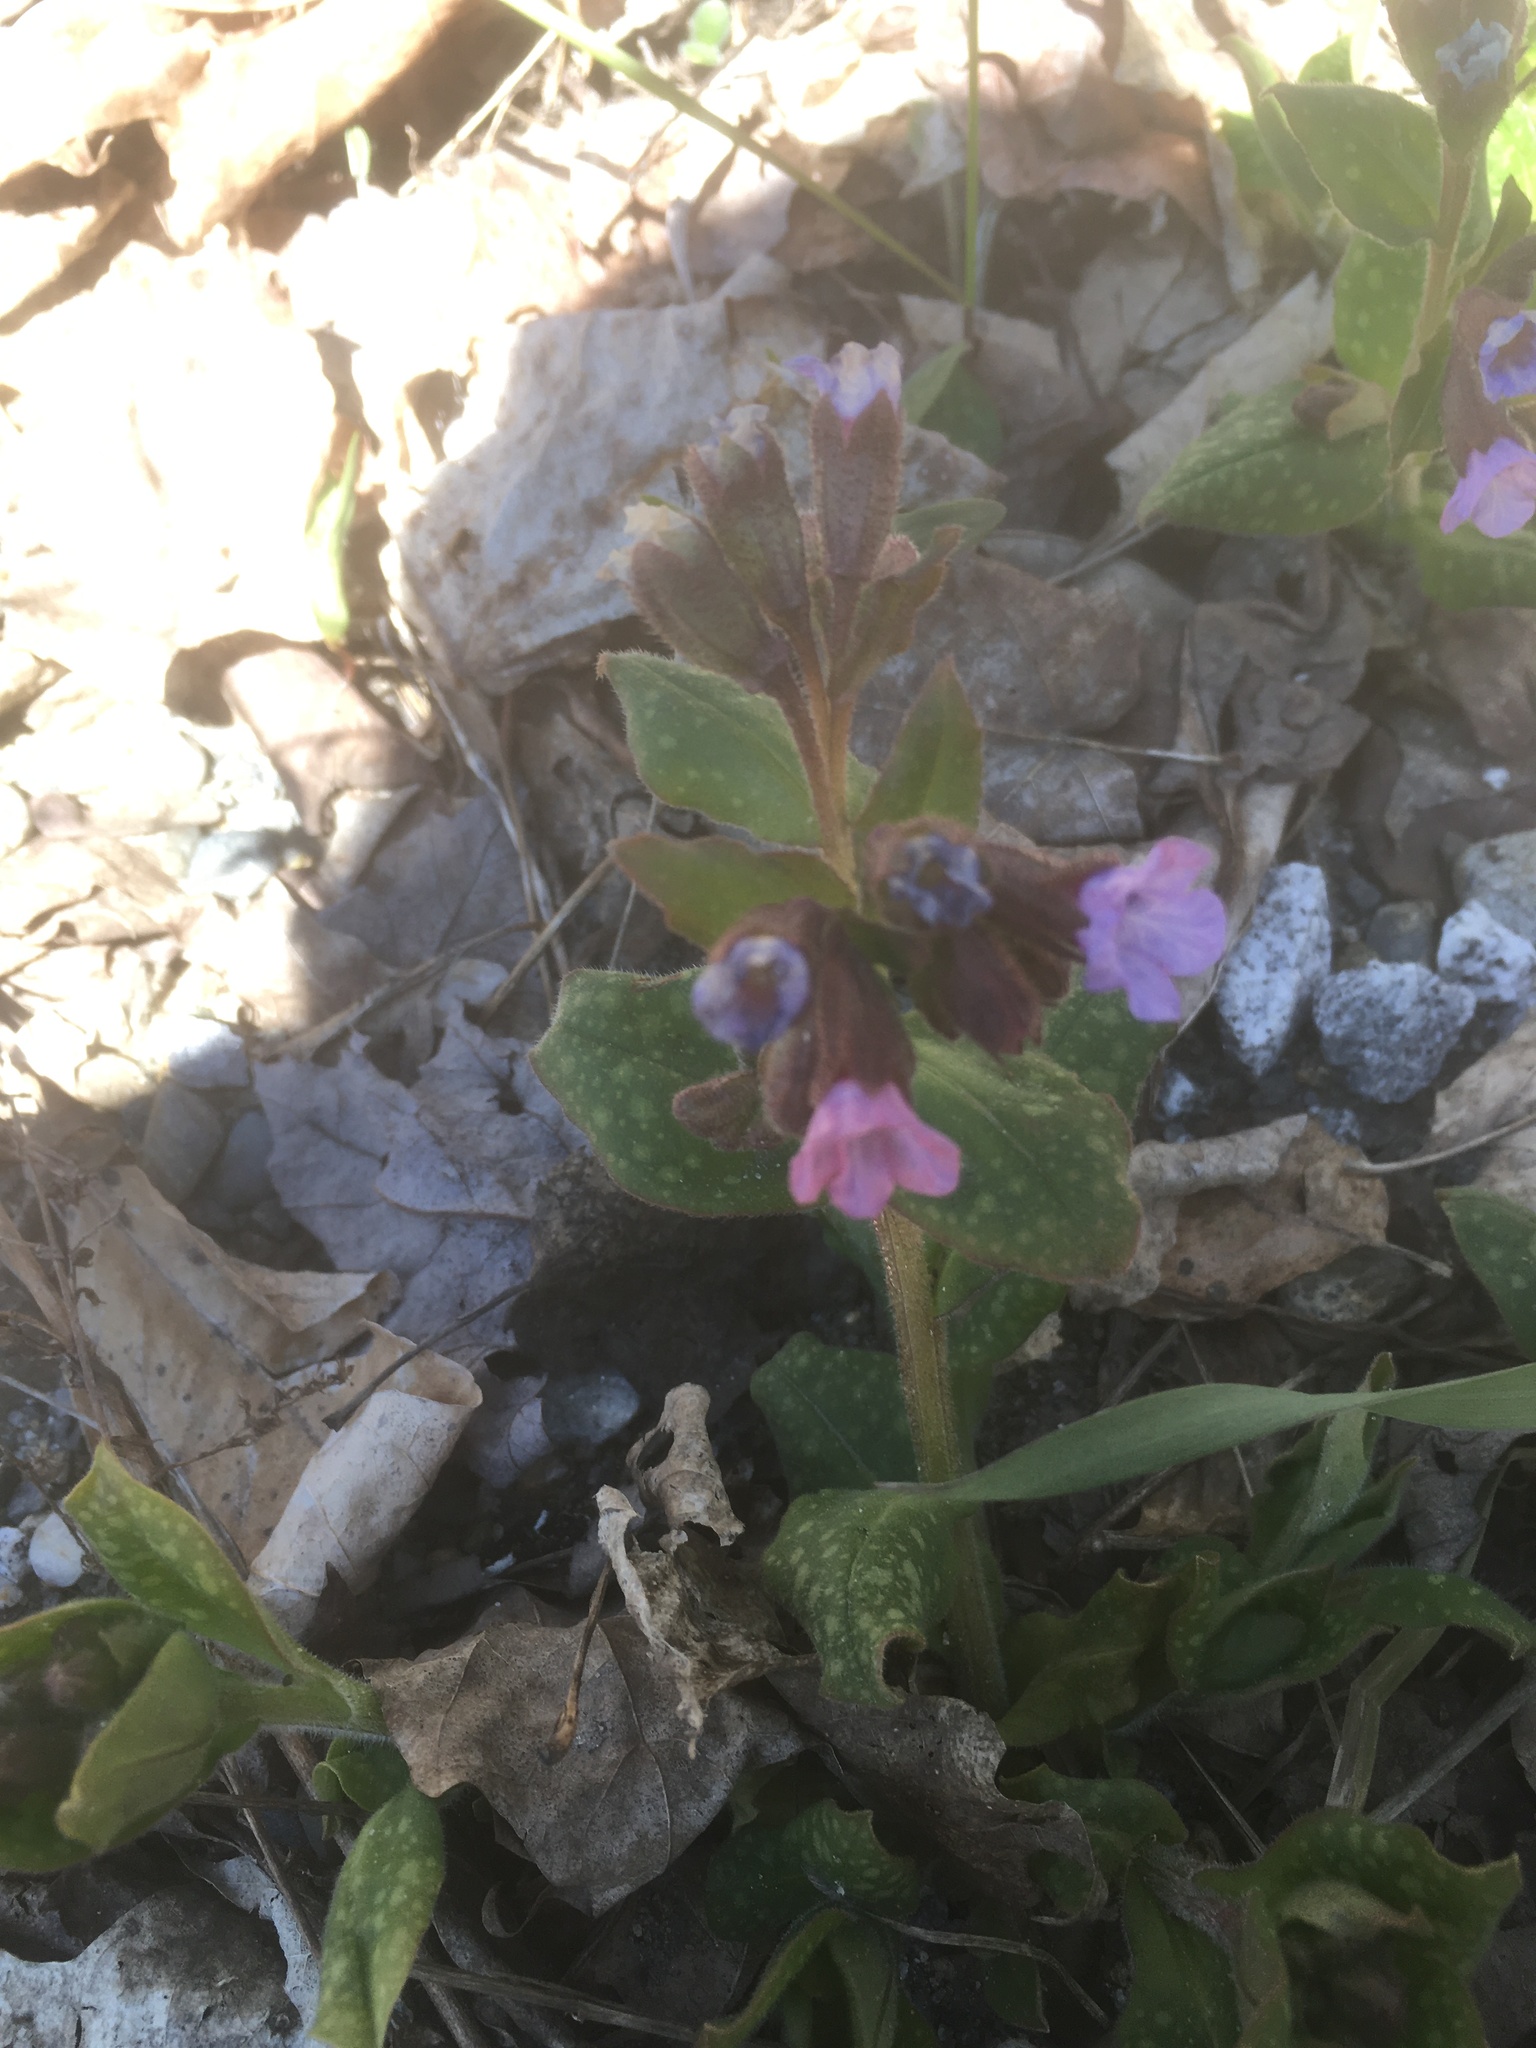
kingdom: Plantae
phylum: Tracheophyta
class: Magnoliopsida
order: Boraginales
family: Boraginaceae
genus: Pulmonaria
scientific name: Pulmonaria officinalis
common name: Lungwort
